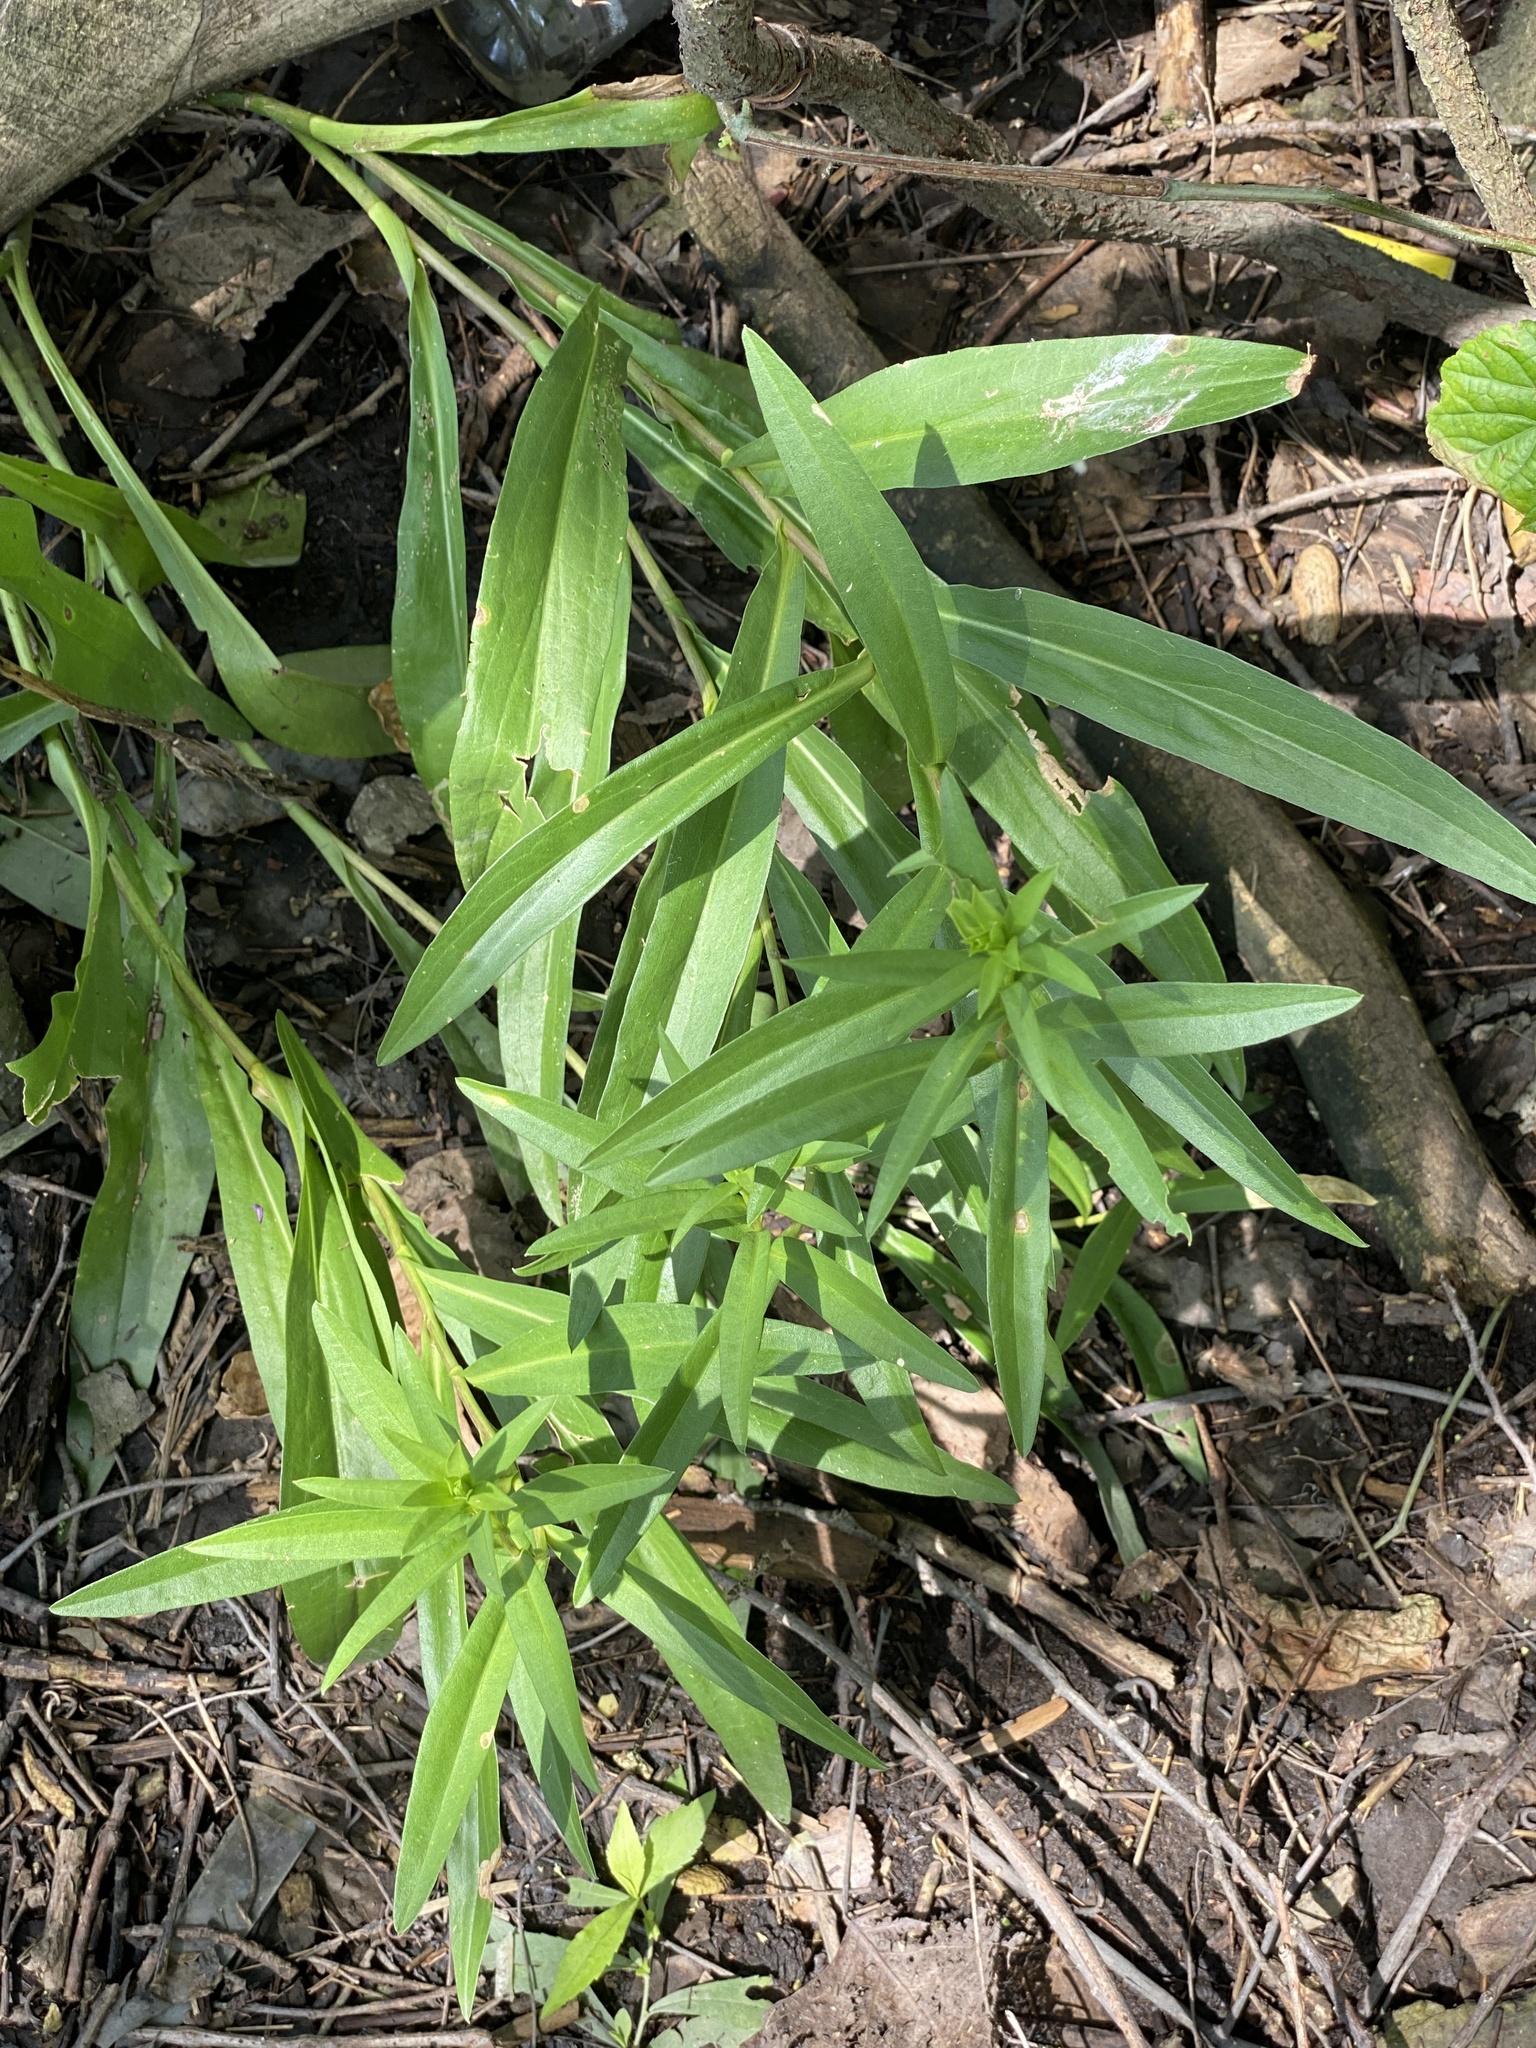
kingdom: Plantae
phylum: Tracheophyta
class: Magnoliopsida
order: Asterales
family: Asteraceae
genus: Solidago
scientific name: Solidago sempervirens
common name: Salt-marsh goldenrod
